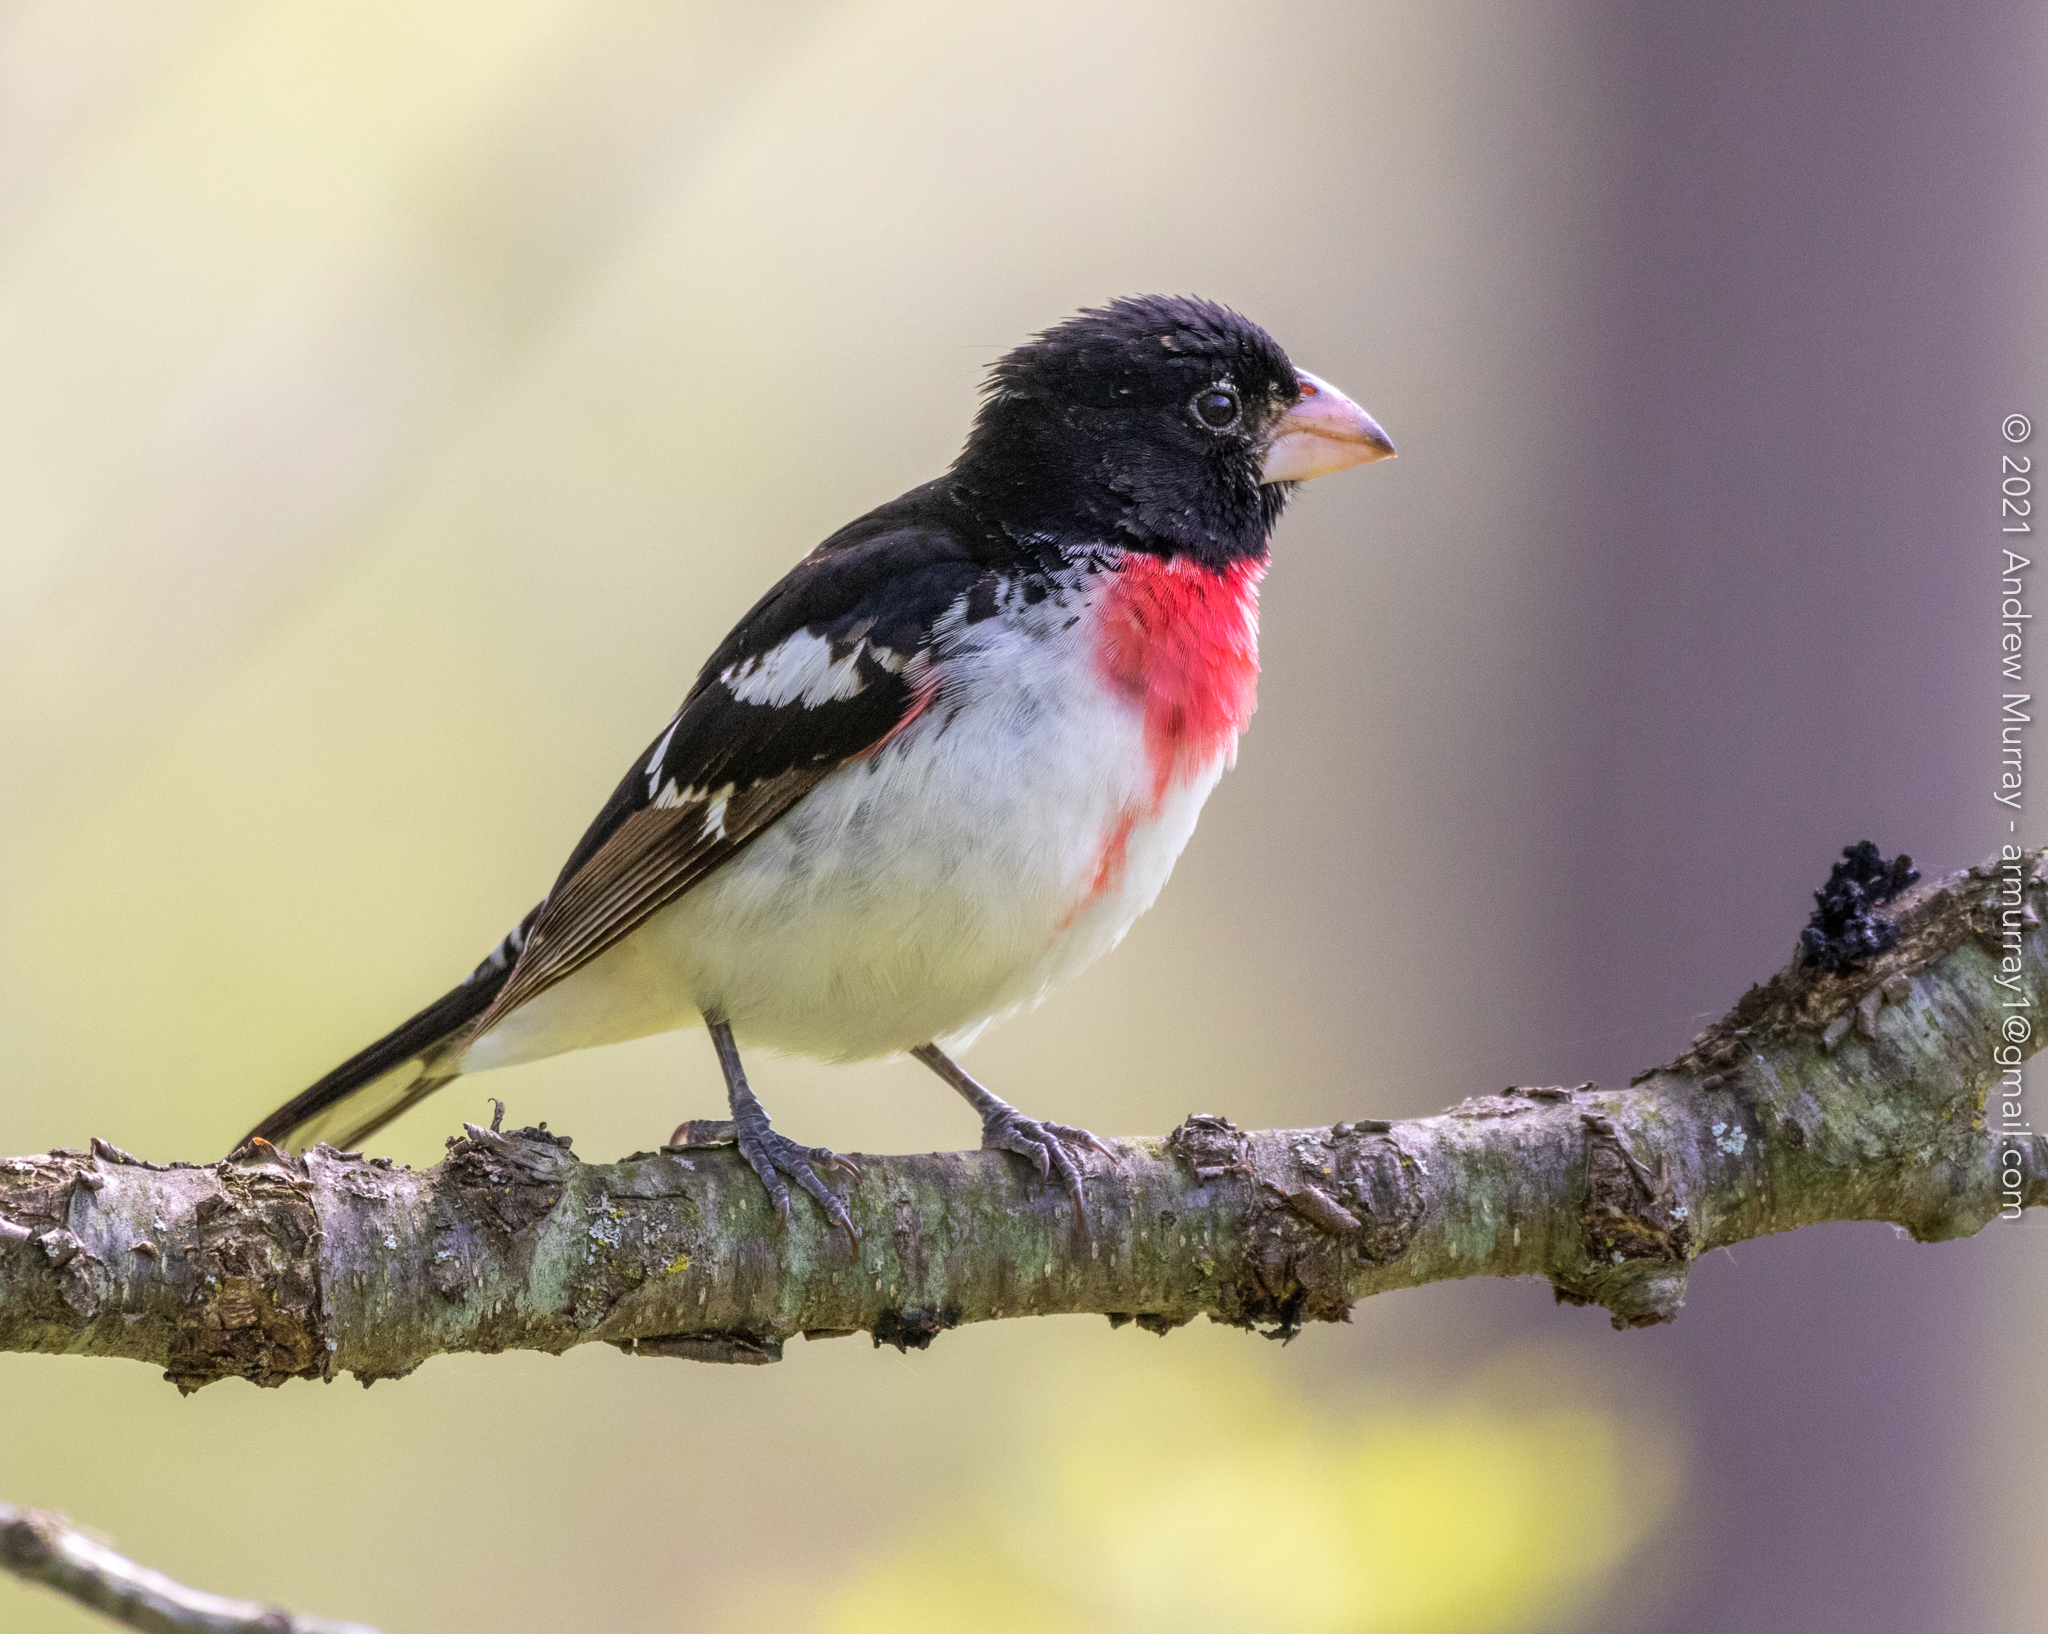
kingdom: Animalia
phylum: Chordata
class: Aves
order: Passeriformes
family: Cardinalidae
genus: Pheucticus
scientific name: Pheucticus ludovicianus
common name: Rose-breasted grosbeak
